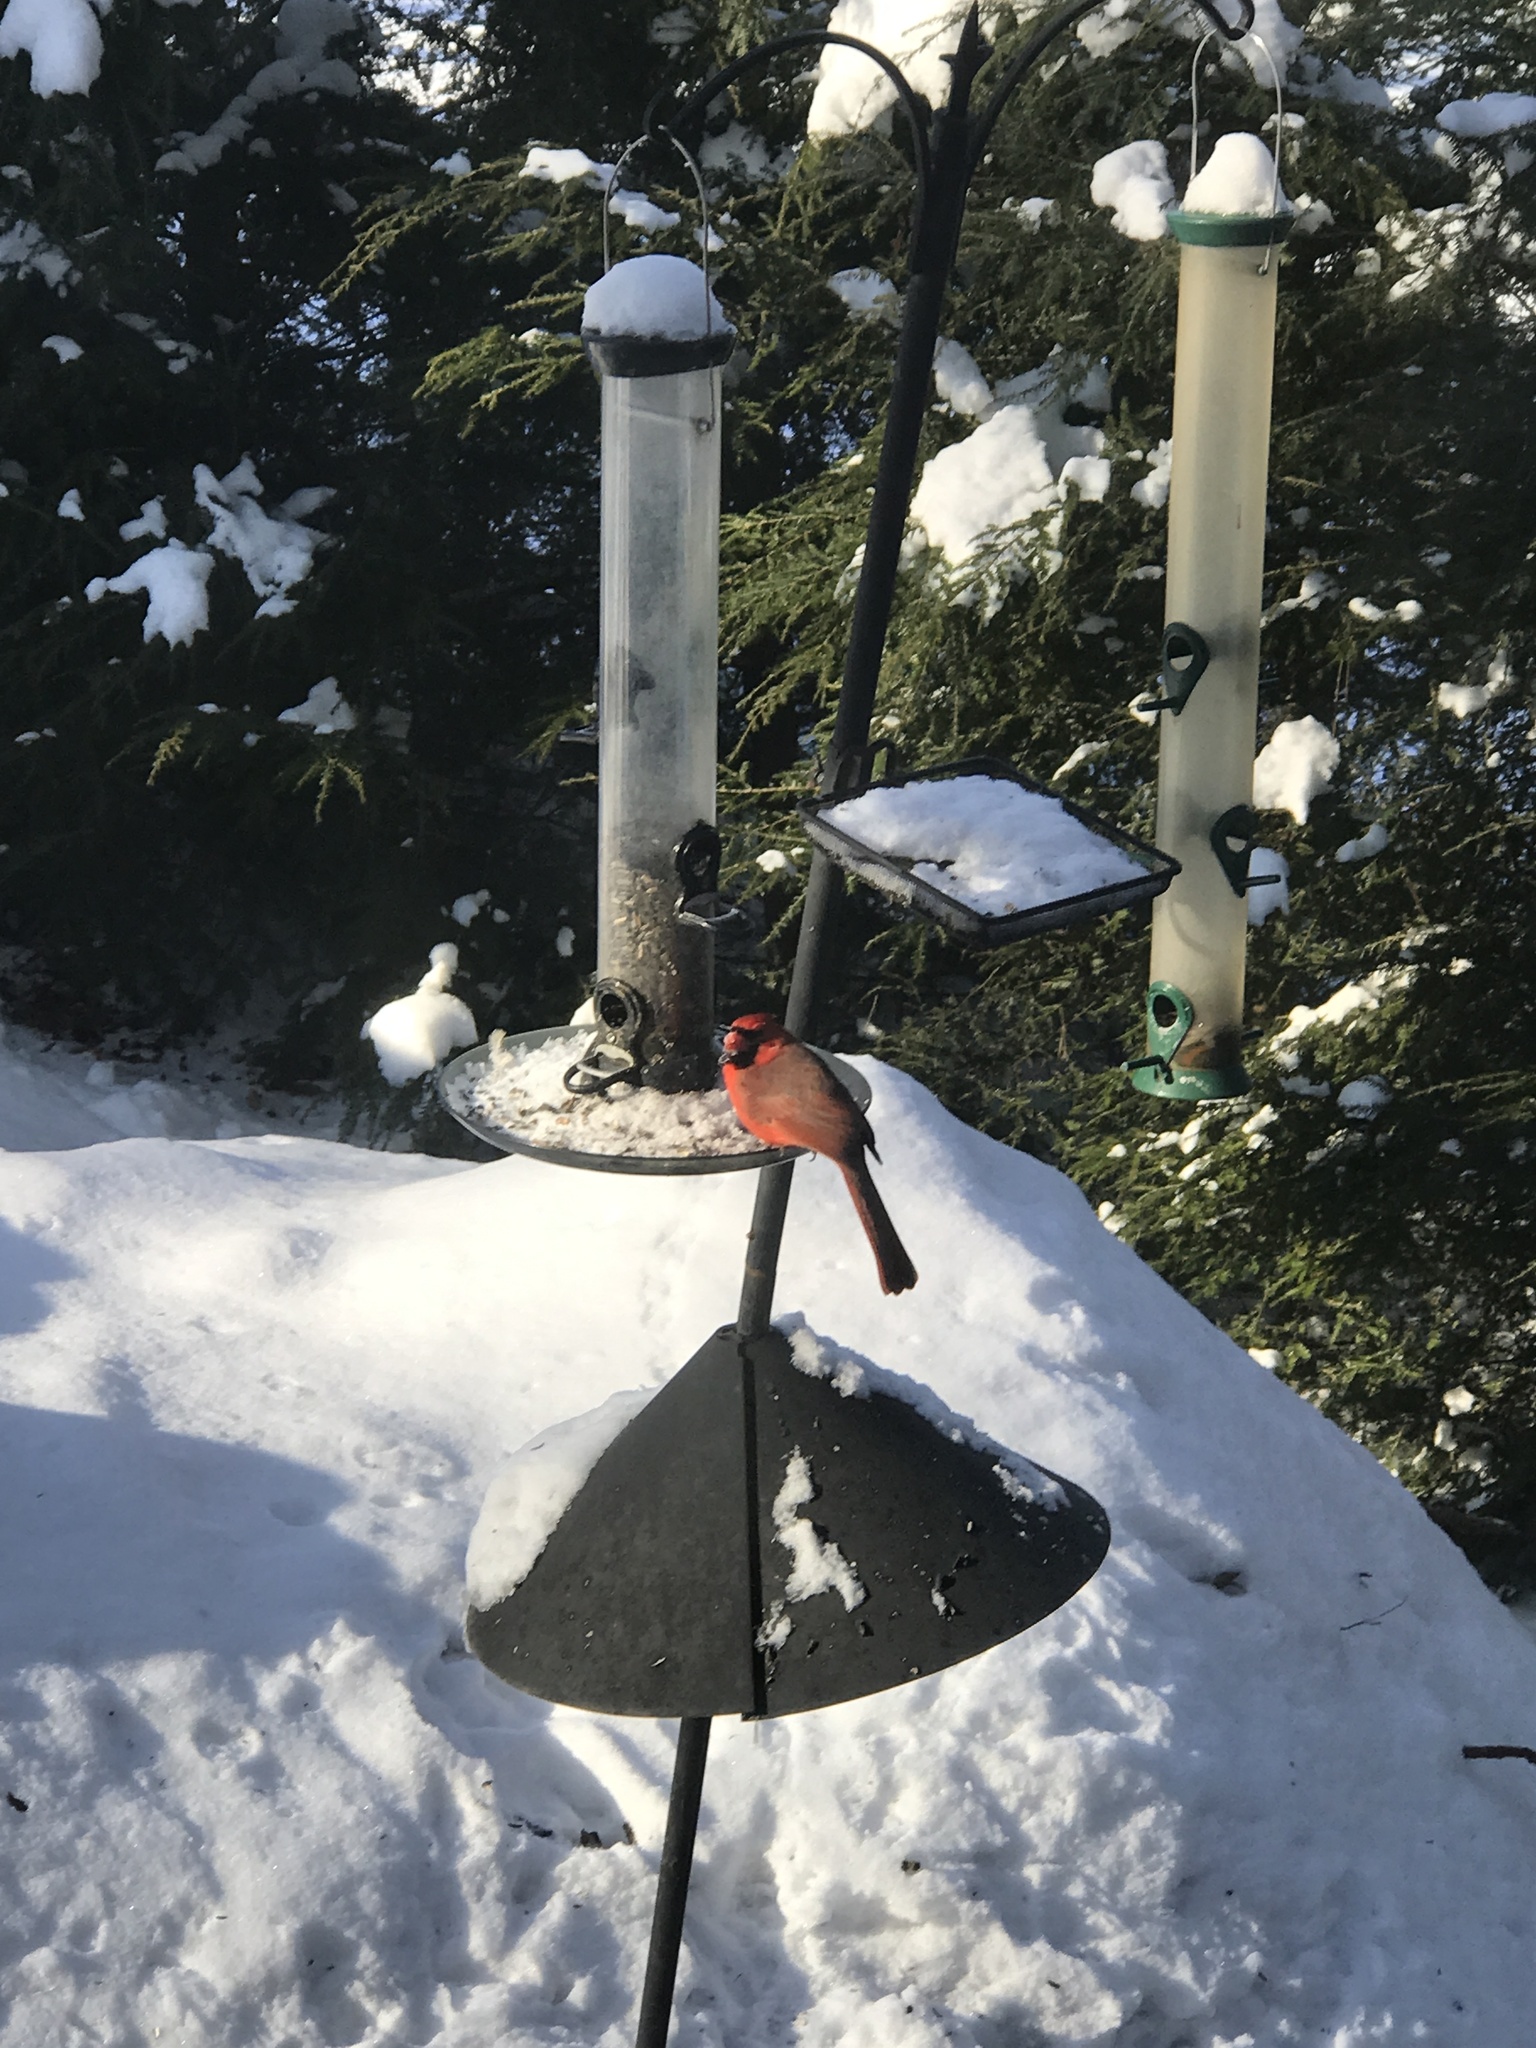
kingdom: Animalia
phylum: Chordata
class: Aves
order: Passeriformes
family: Cardinalidae
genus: Cardinalis
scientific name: Cardinalis cardinalis
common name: Northern cardinal
